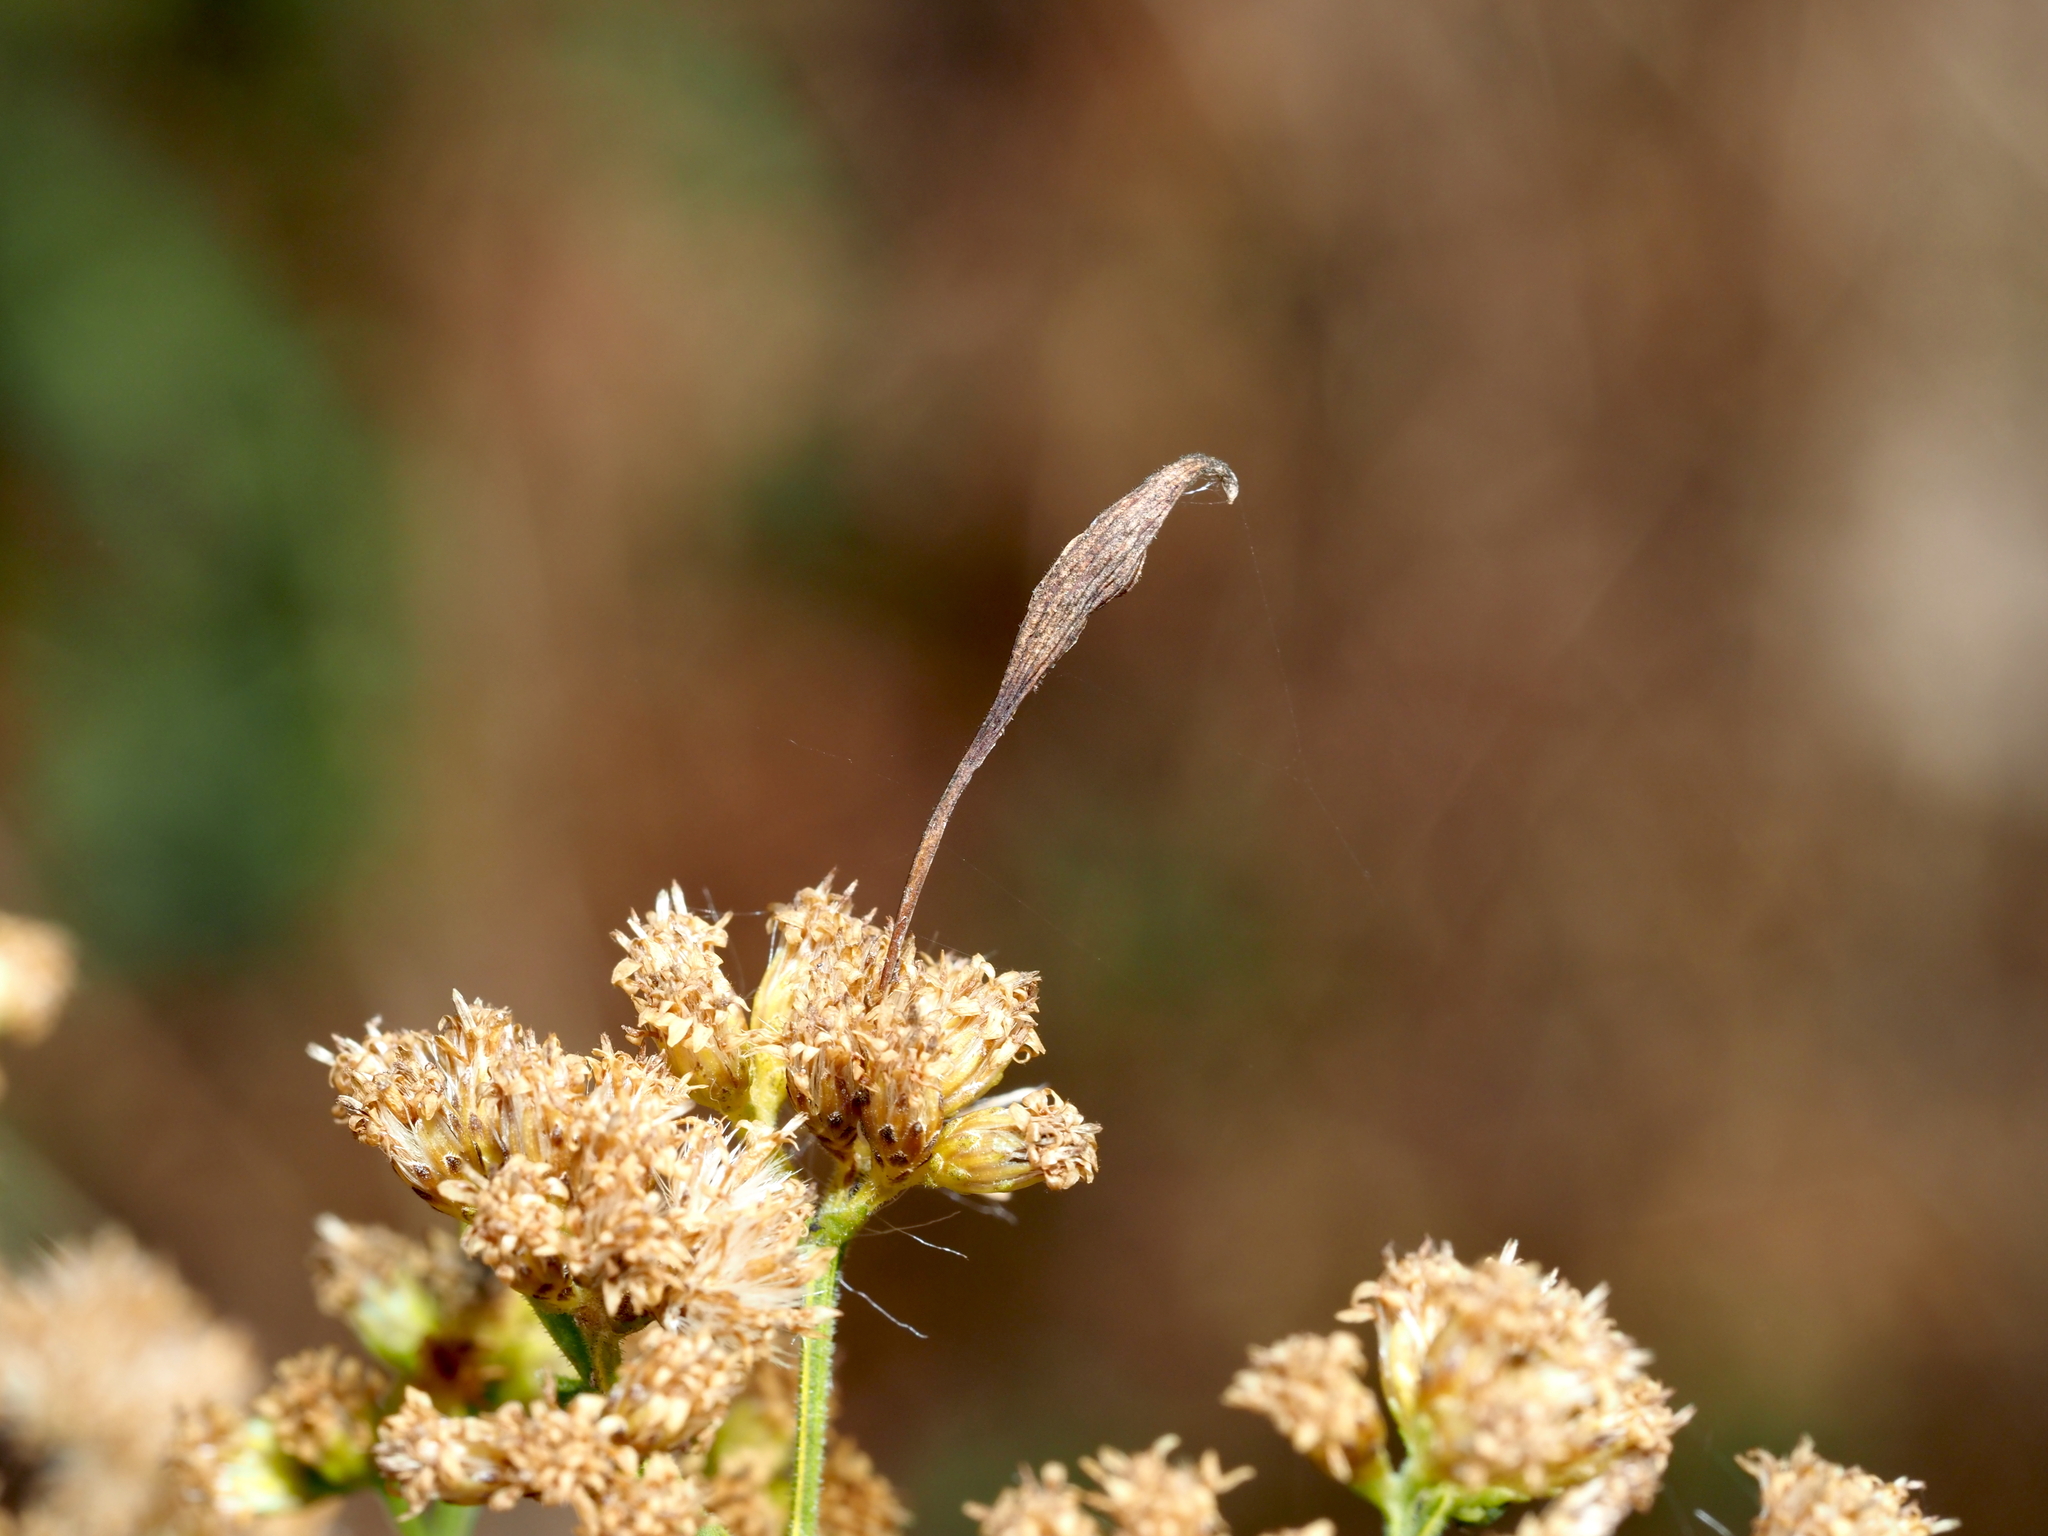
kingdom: Animalia
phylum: Arthropoda
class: Insecta
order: Diptera
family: Cecidomyiidae
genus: Rhopalomyia
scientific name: Rhopalomyia pedicellata
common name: Goldentop pedicellate gall midge
